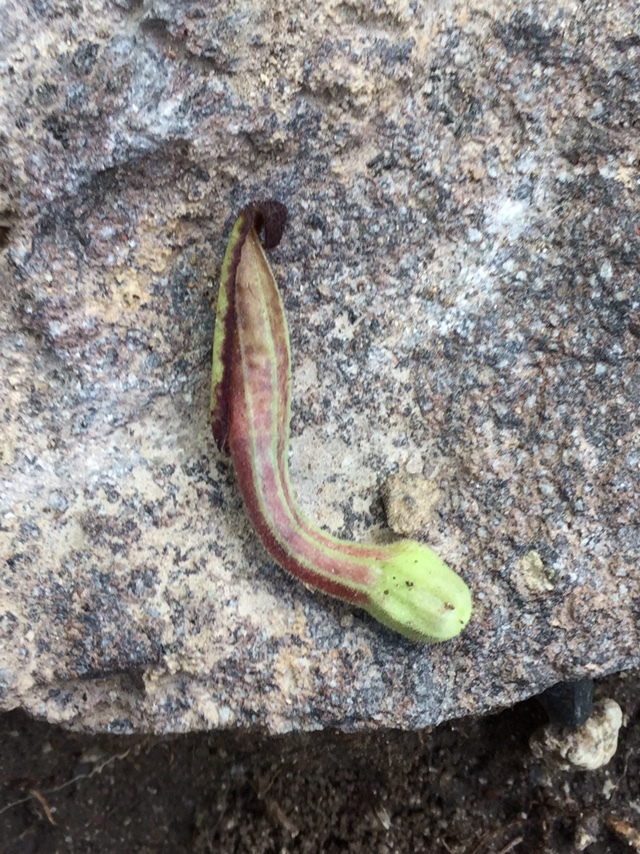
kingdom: Plantae
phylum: Tracheophyta
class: Magnoliopsida
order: Piperales
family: Aristolochiaceae
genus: Aristolochia
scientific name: Aristolochia versabilifolia
